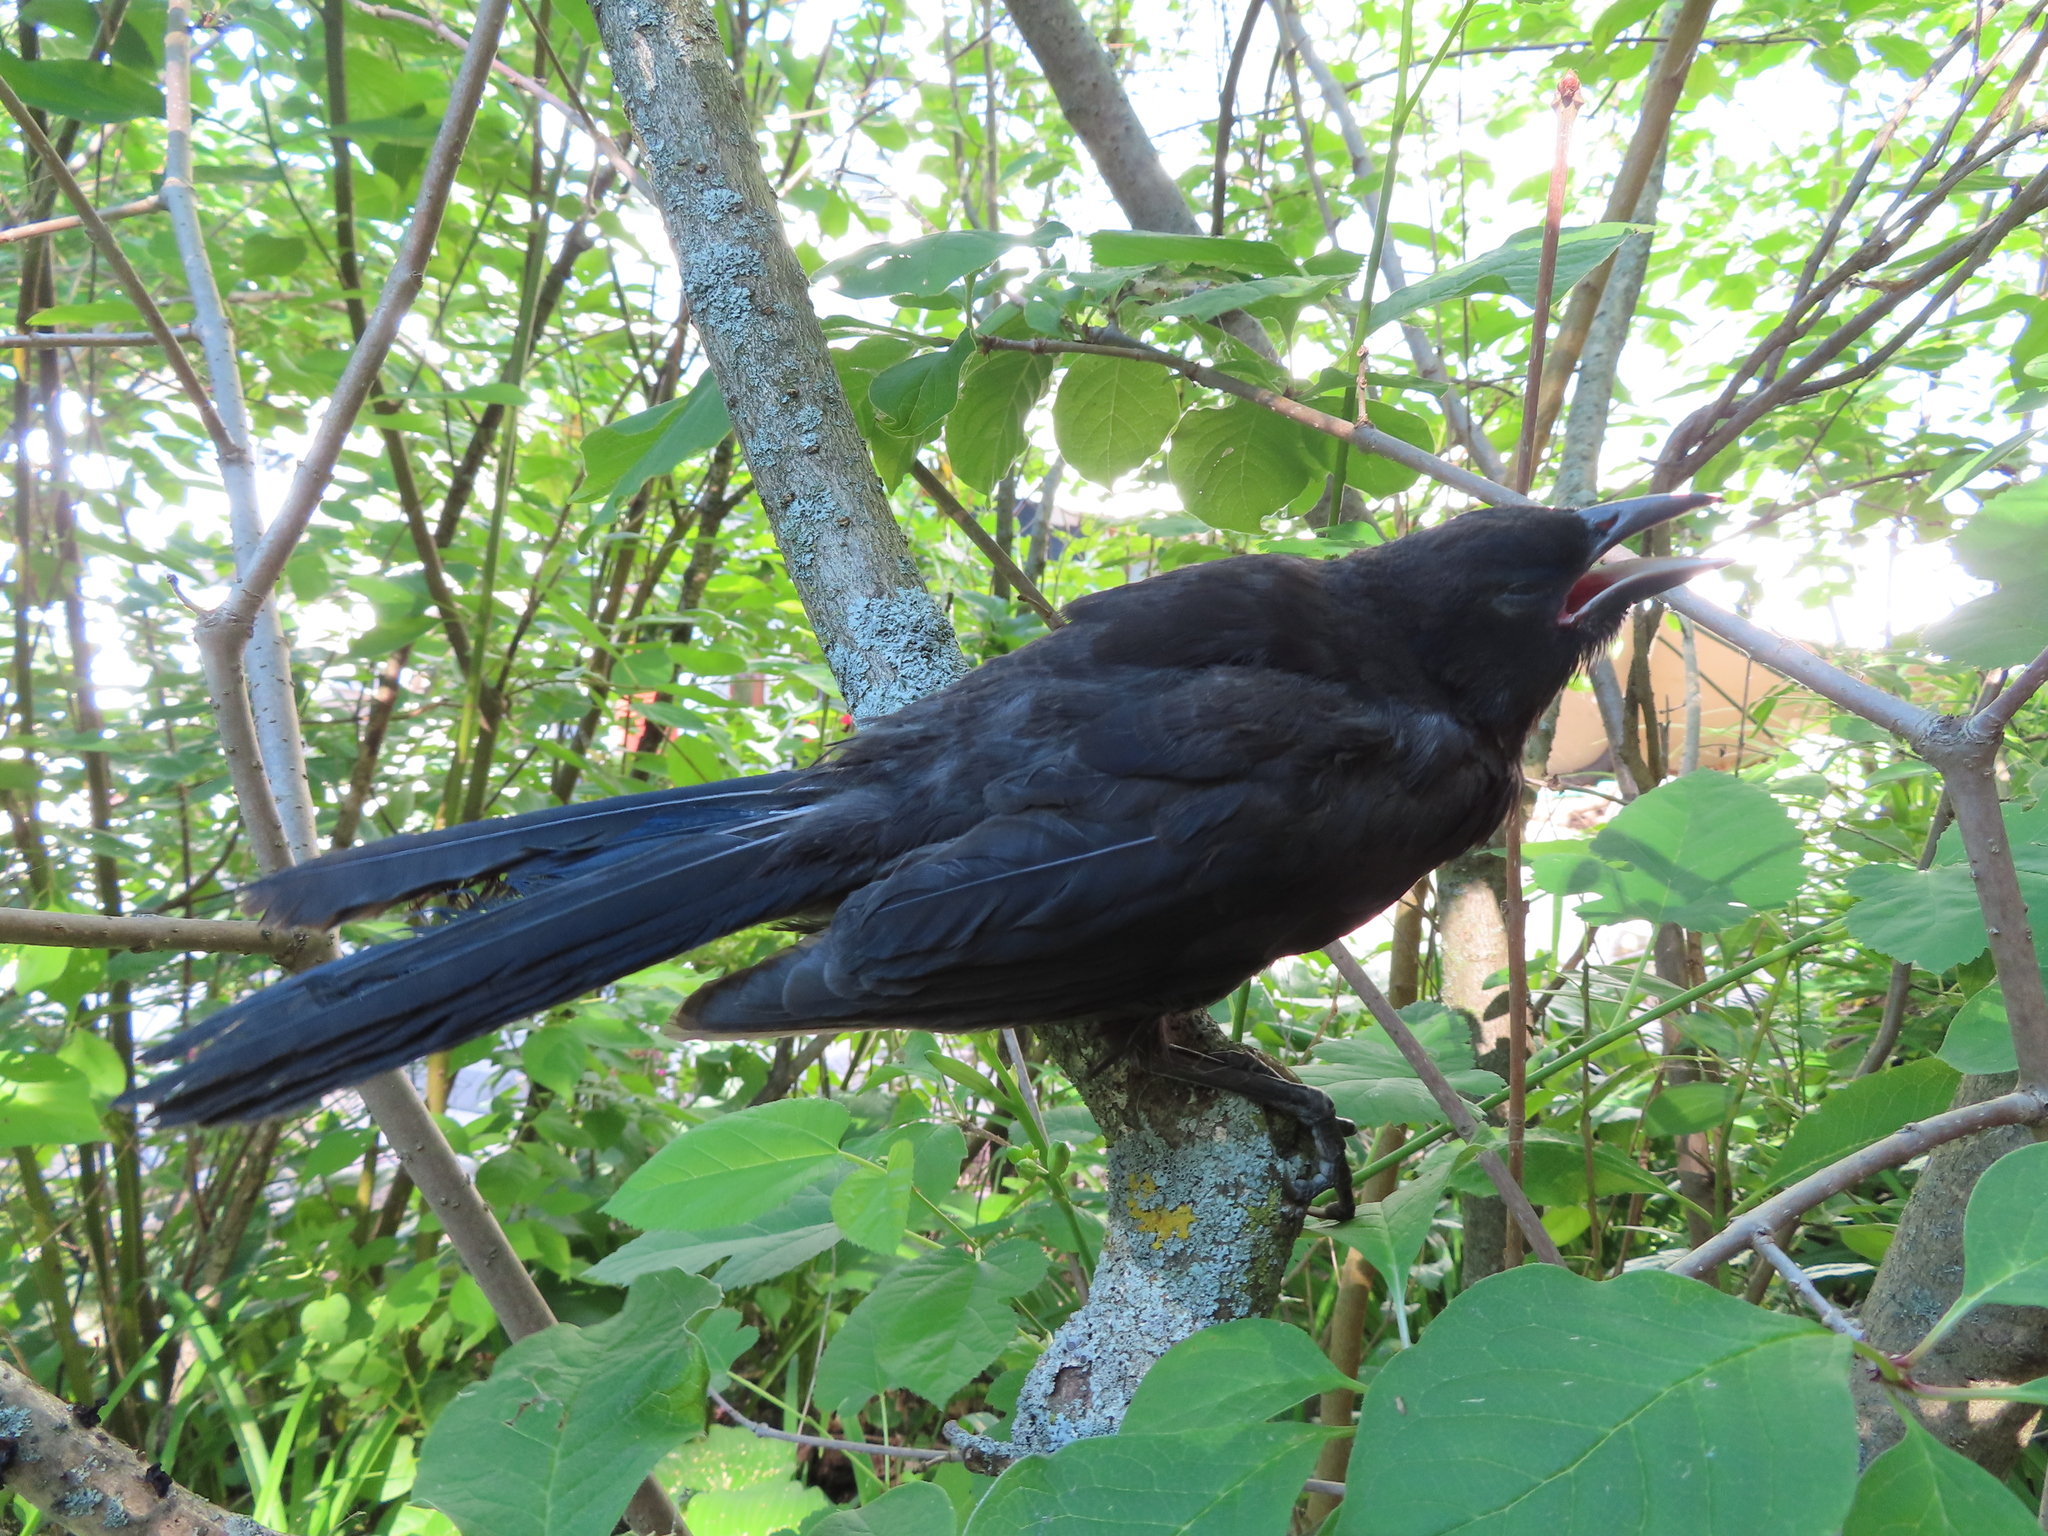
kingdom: Animalia
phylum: Chordata
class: Aves
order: Passeriformes
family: Icteridae
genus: Quiscalus
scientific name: Quiscalus quiscula
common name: Common grackle
